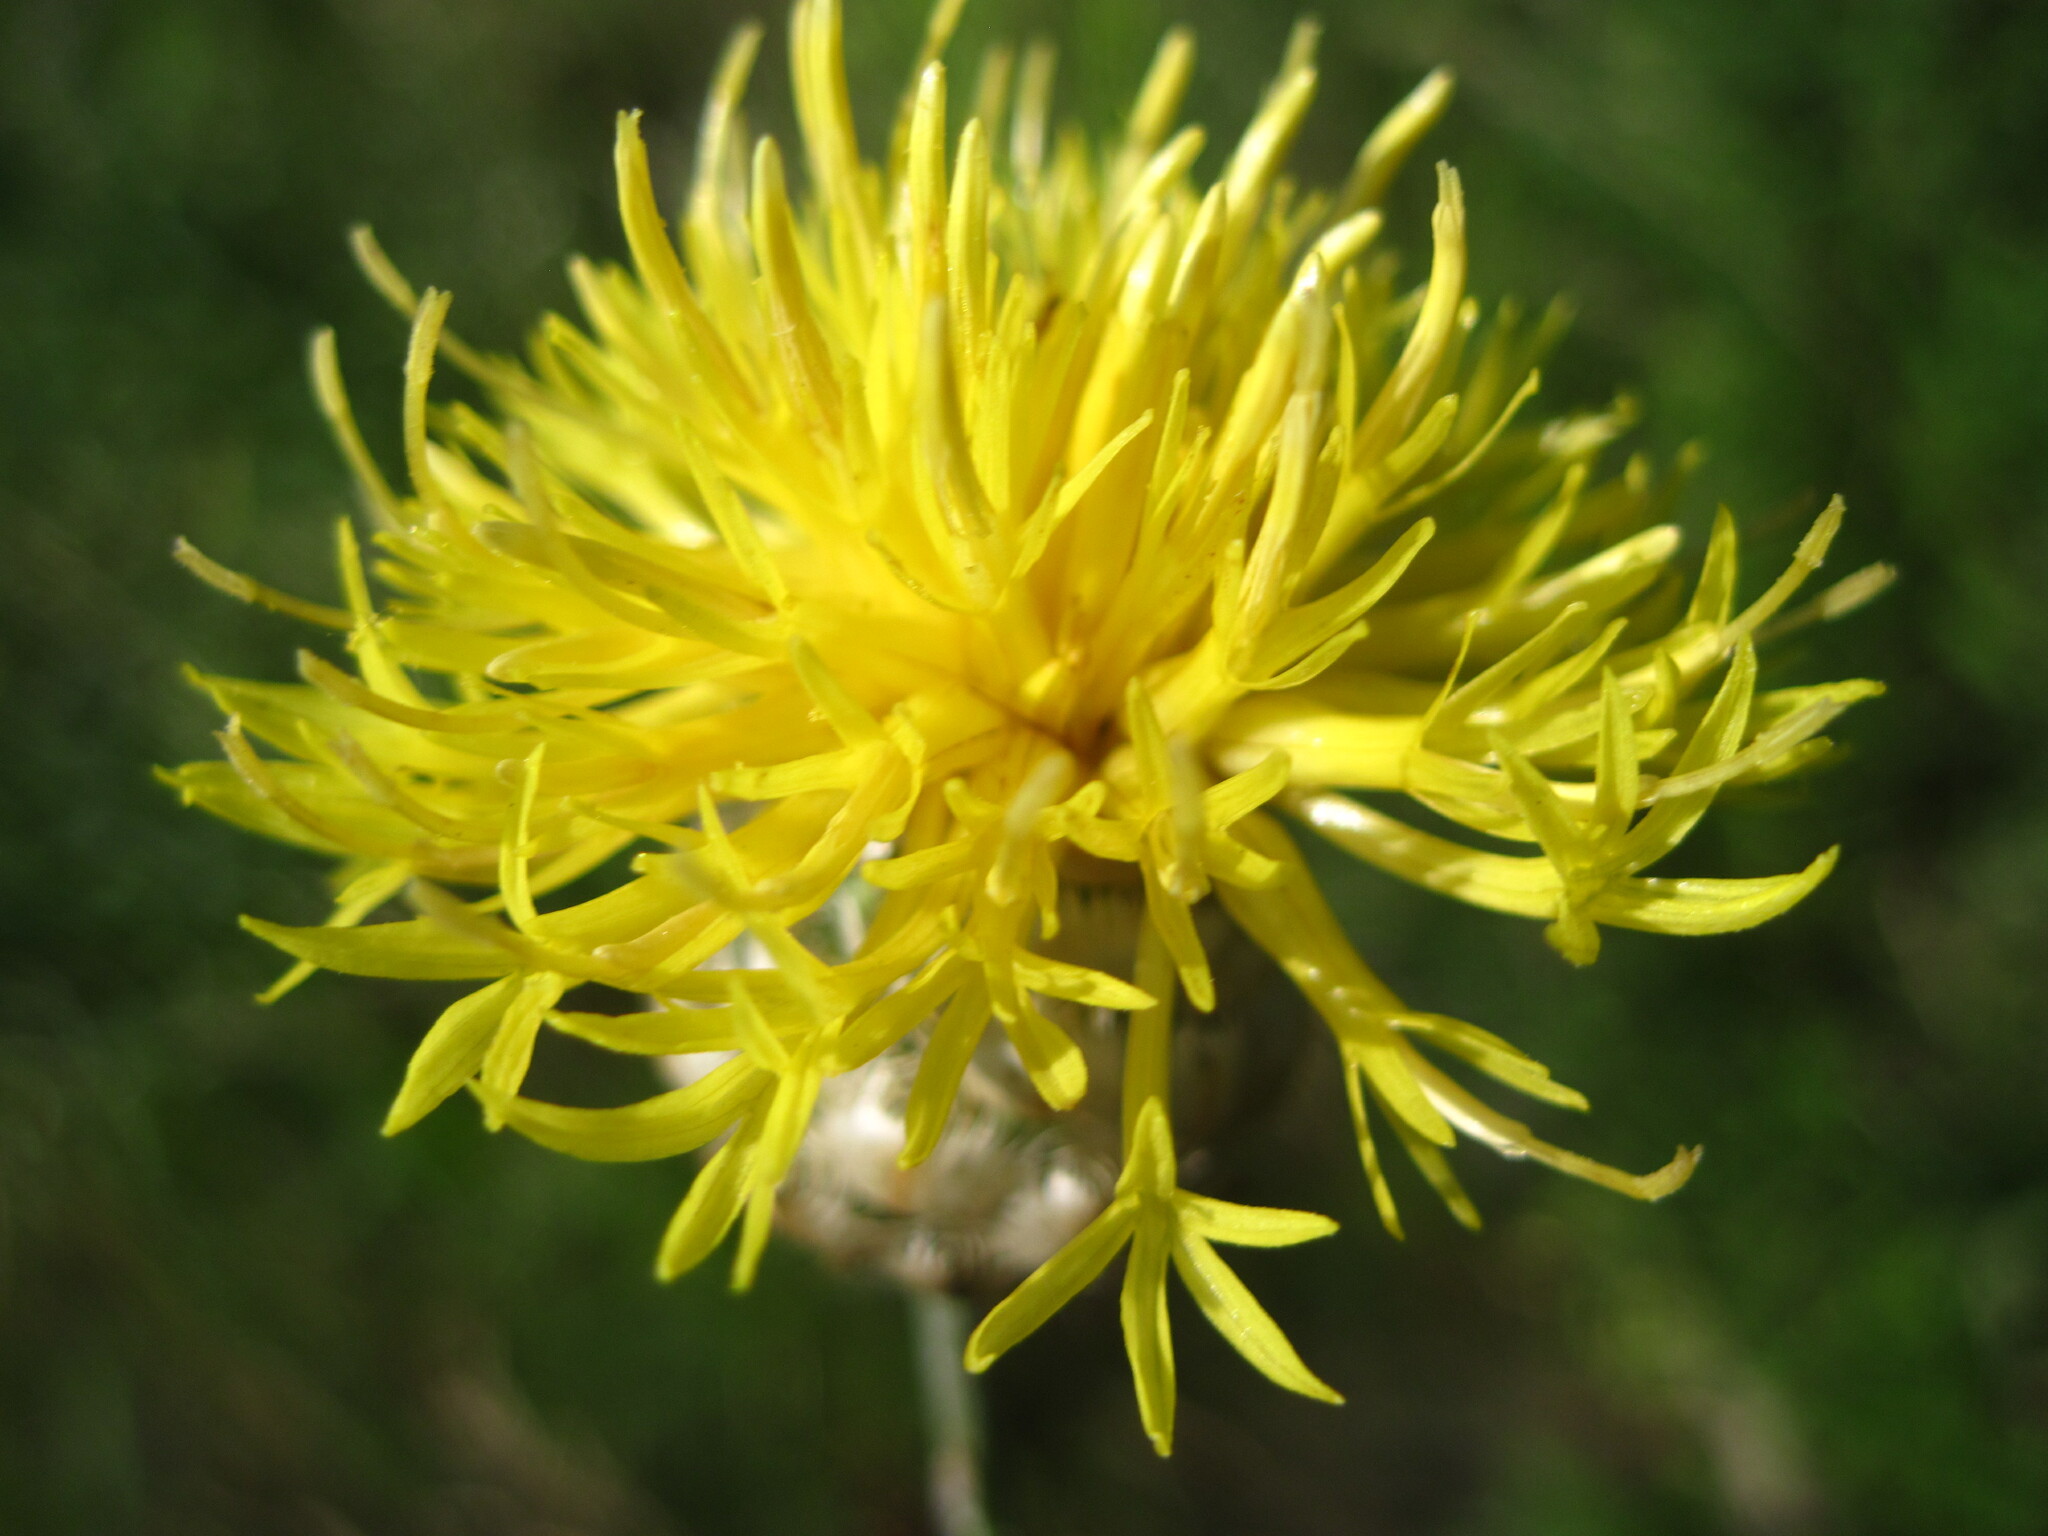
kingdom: Plantae
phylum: Tracheophyta
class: Magnoliopsida
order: Asterales
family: Asteraceae
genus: Centaurea
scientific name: Centaurea orientalis
